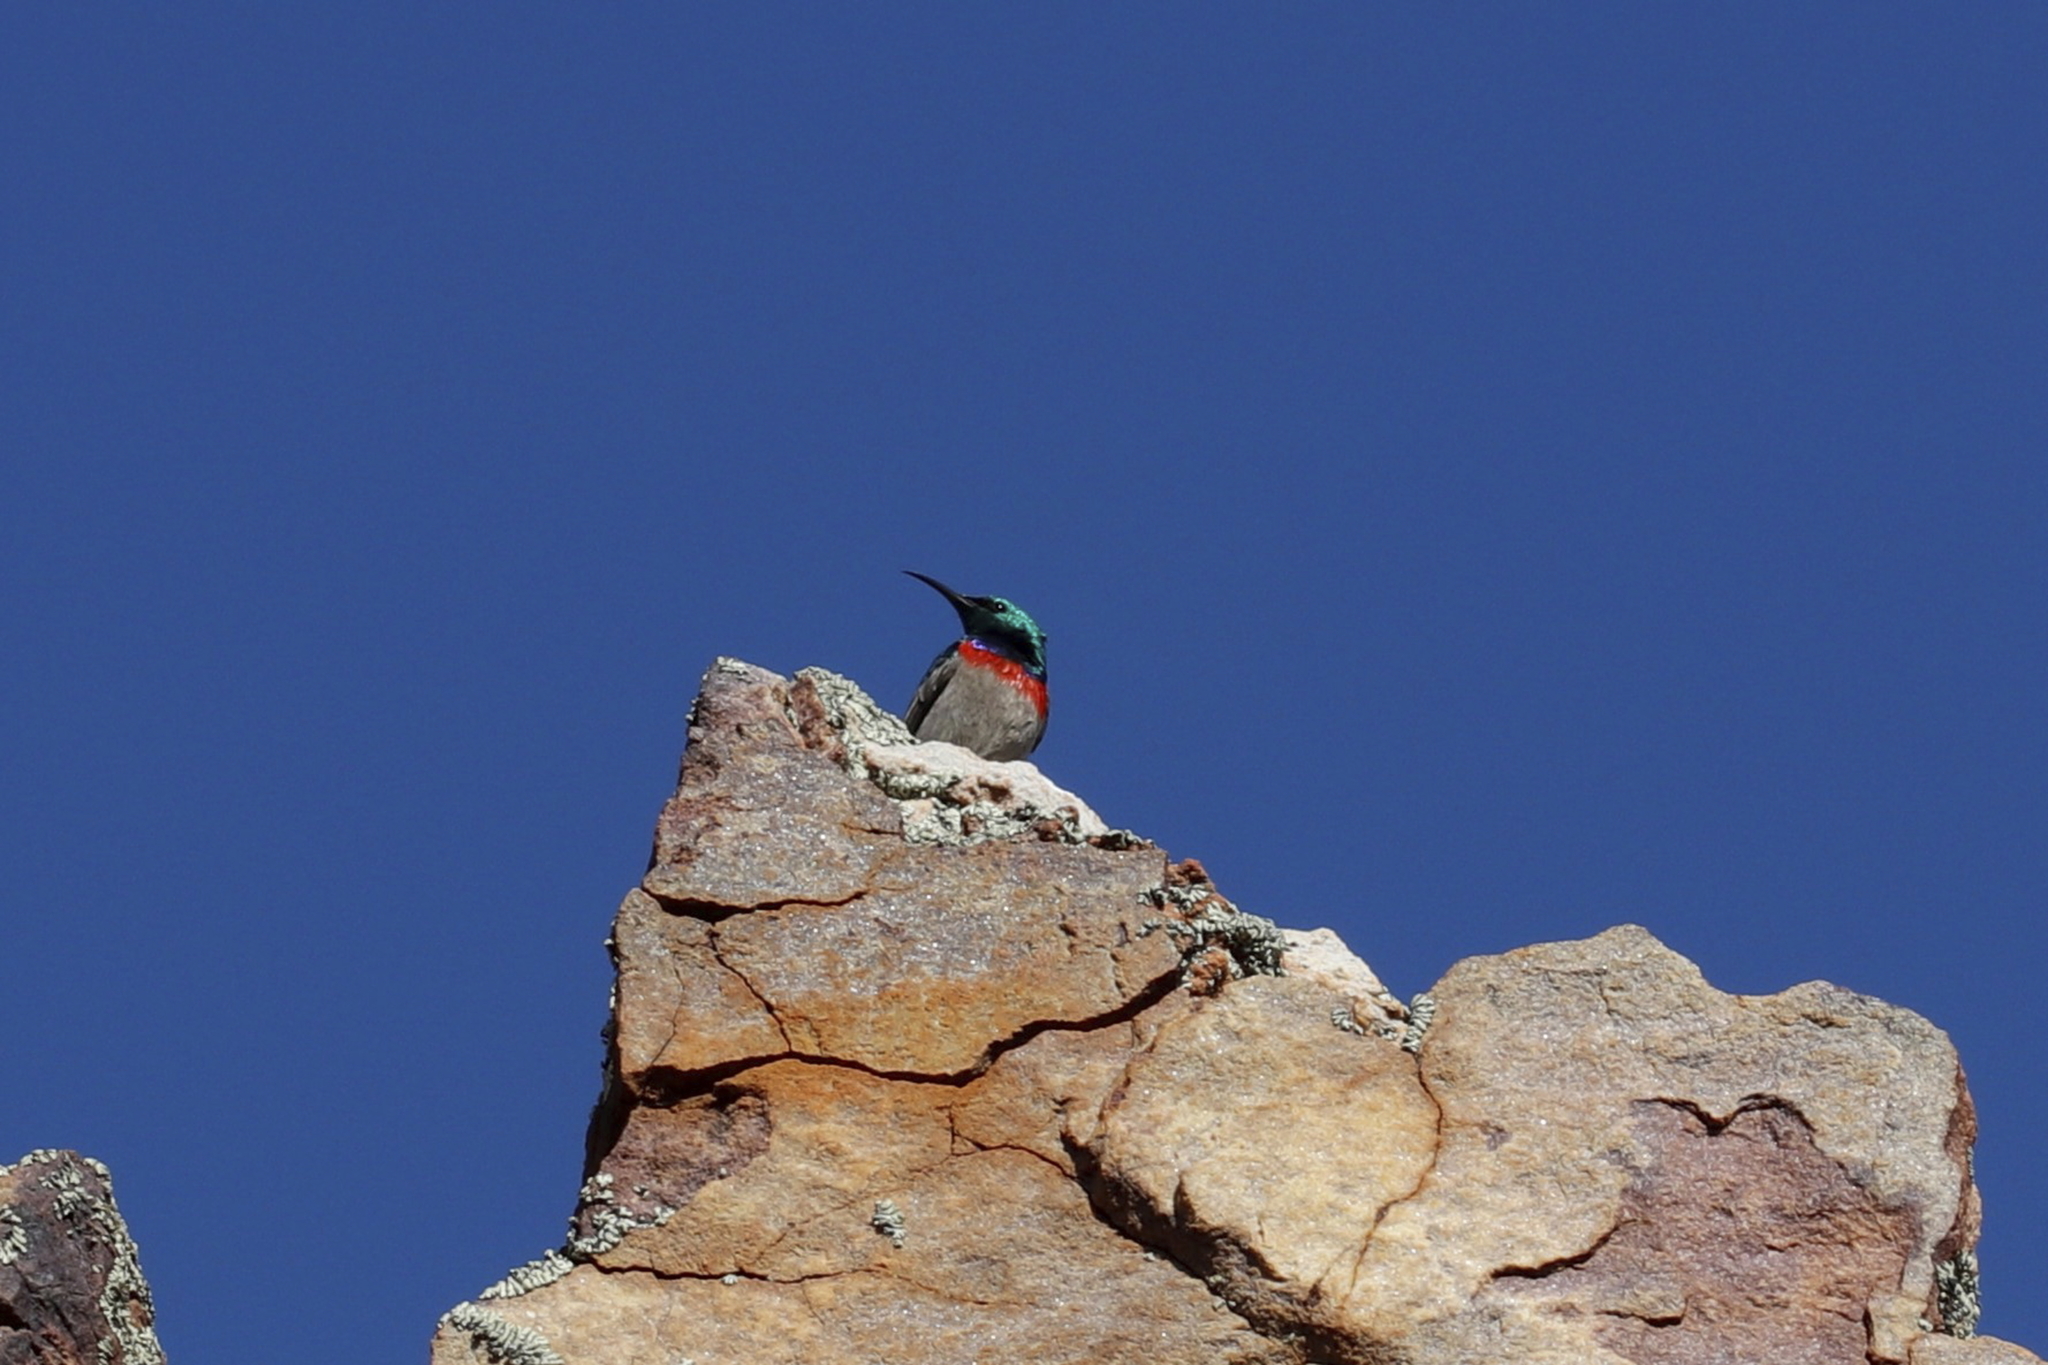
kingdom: Animalia
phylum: Chordata
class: Aves
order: Passeriformes
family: Nectariniidae
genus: Cinnyris
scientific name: Cinnyris chalybeus
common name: Southern double-collared sunbird
